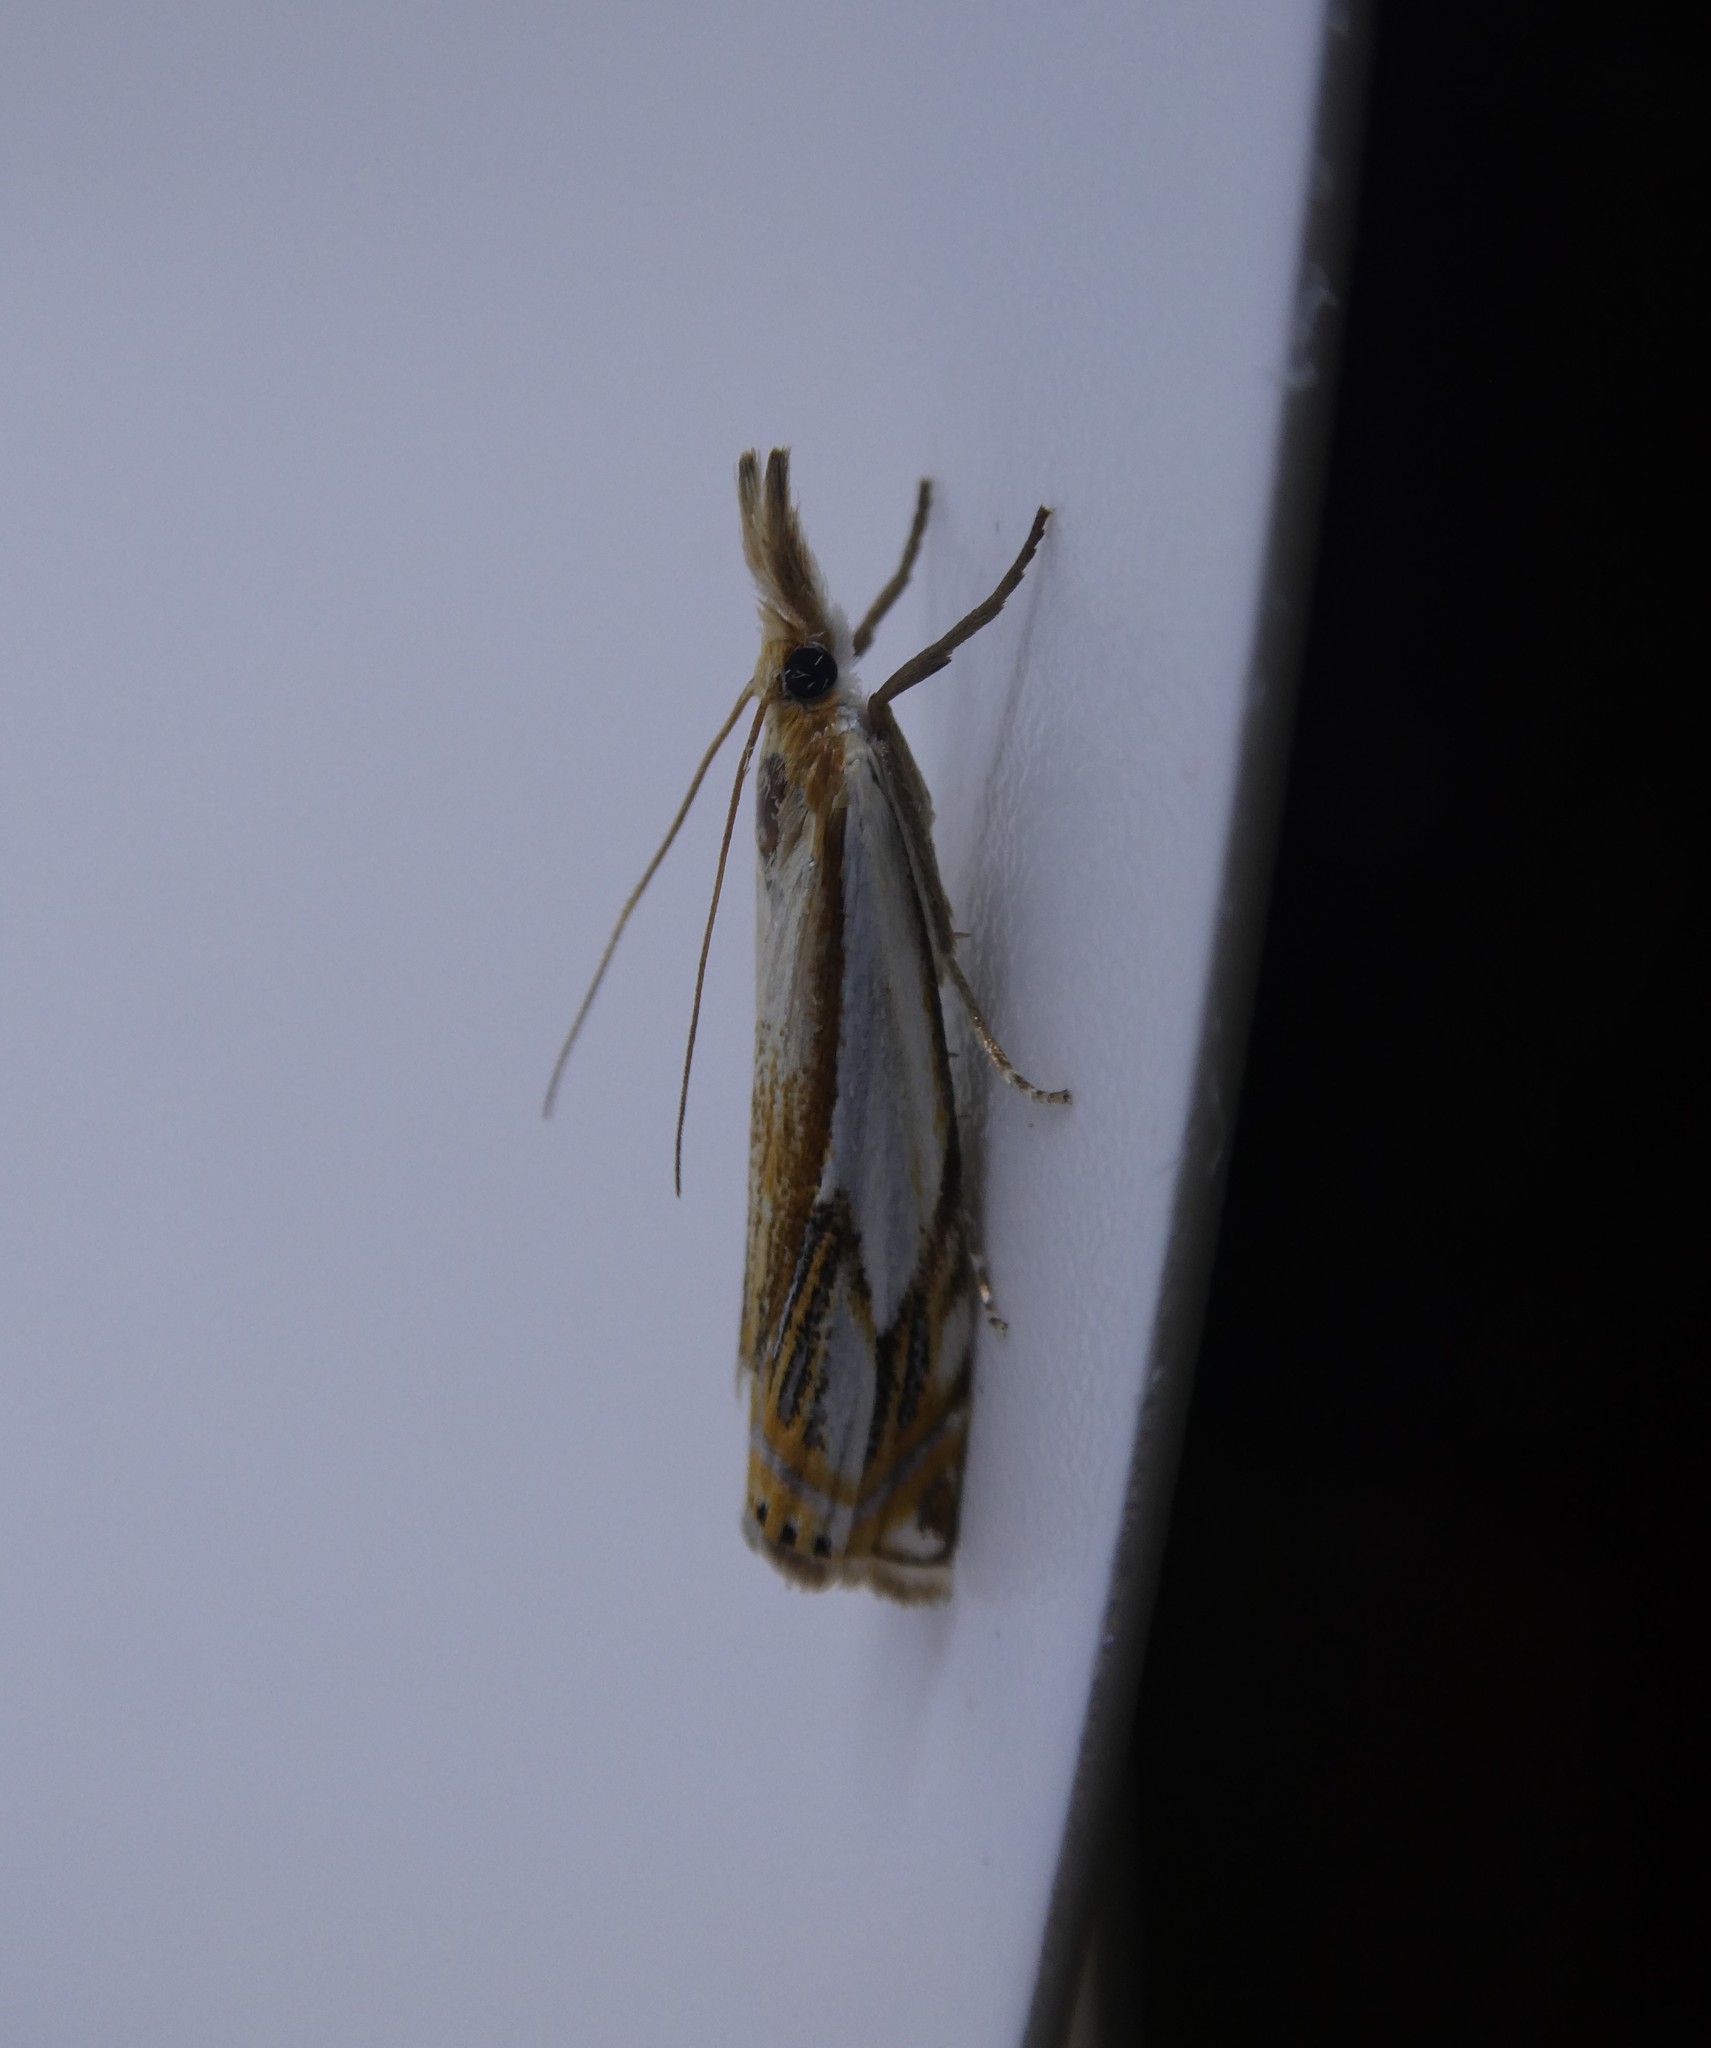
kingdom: Animalia
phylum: Arthropoda
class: Insecta
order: Lepidoptera
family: Crambidae
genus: Crambus
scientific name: Crambus agitatellus
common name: Double-banded grass-veneer
